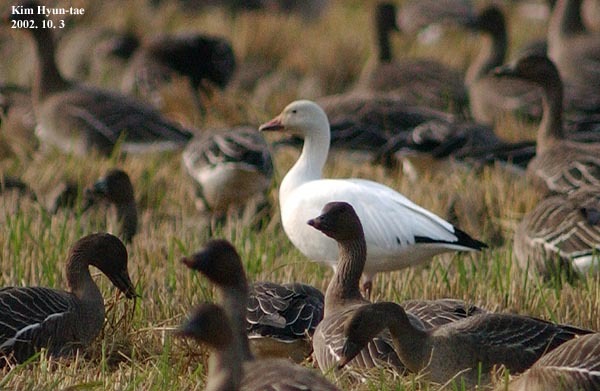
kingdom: Animalia
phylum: Chordata
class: Aves
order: Anseriformes
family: Anatidae
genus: Anser
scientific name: Anser caerulescens
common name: Snow goose
